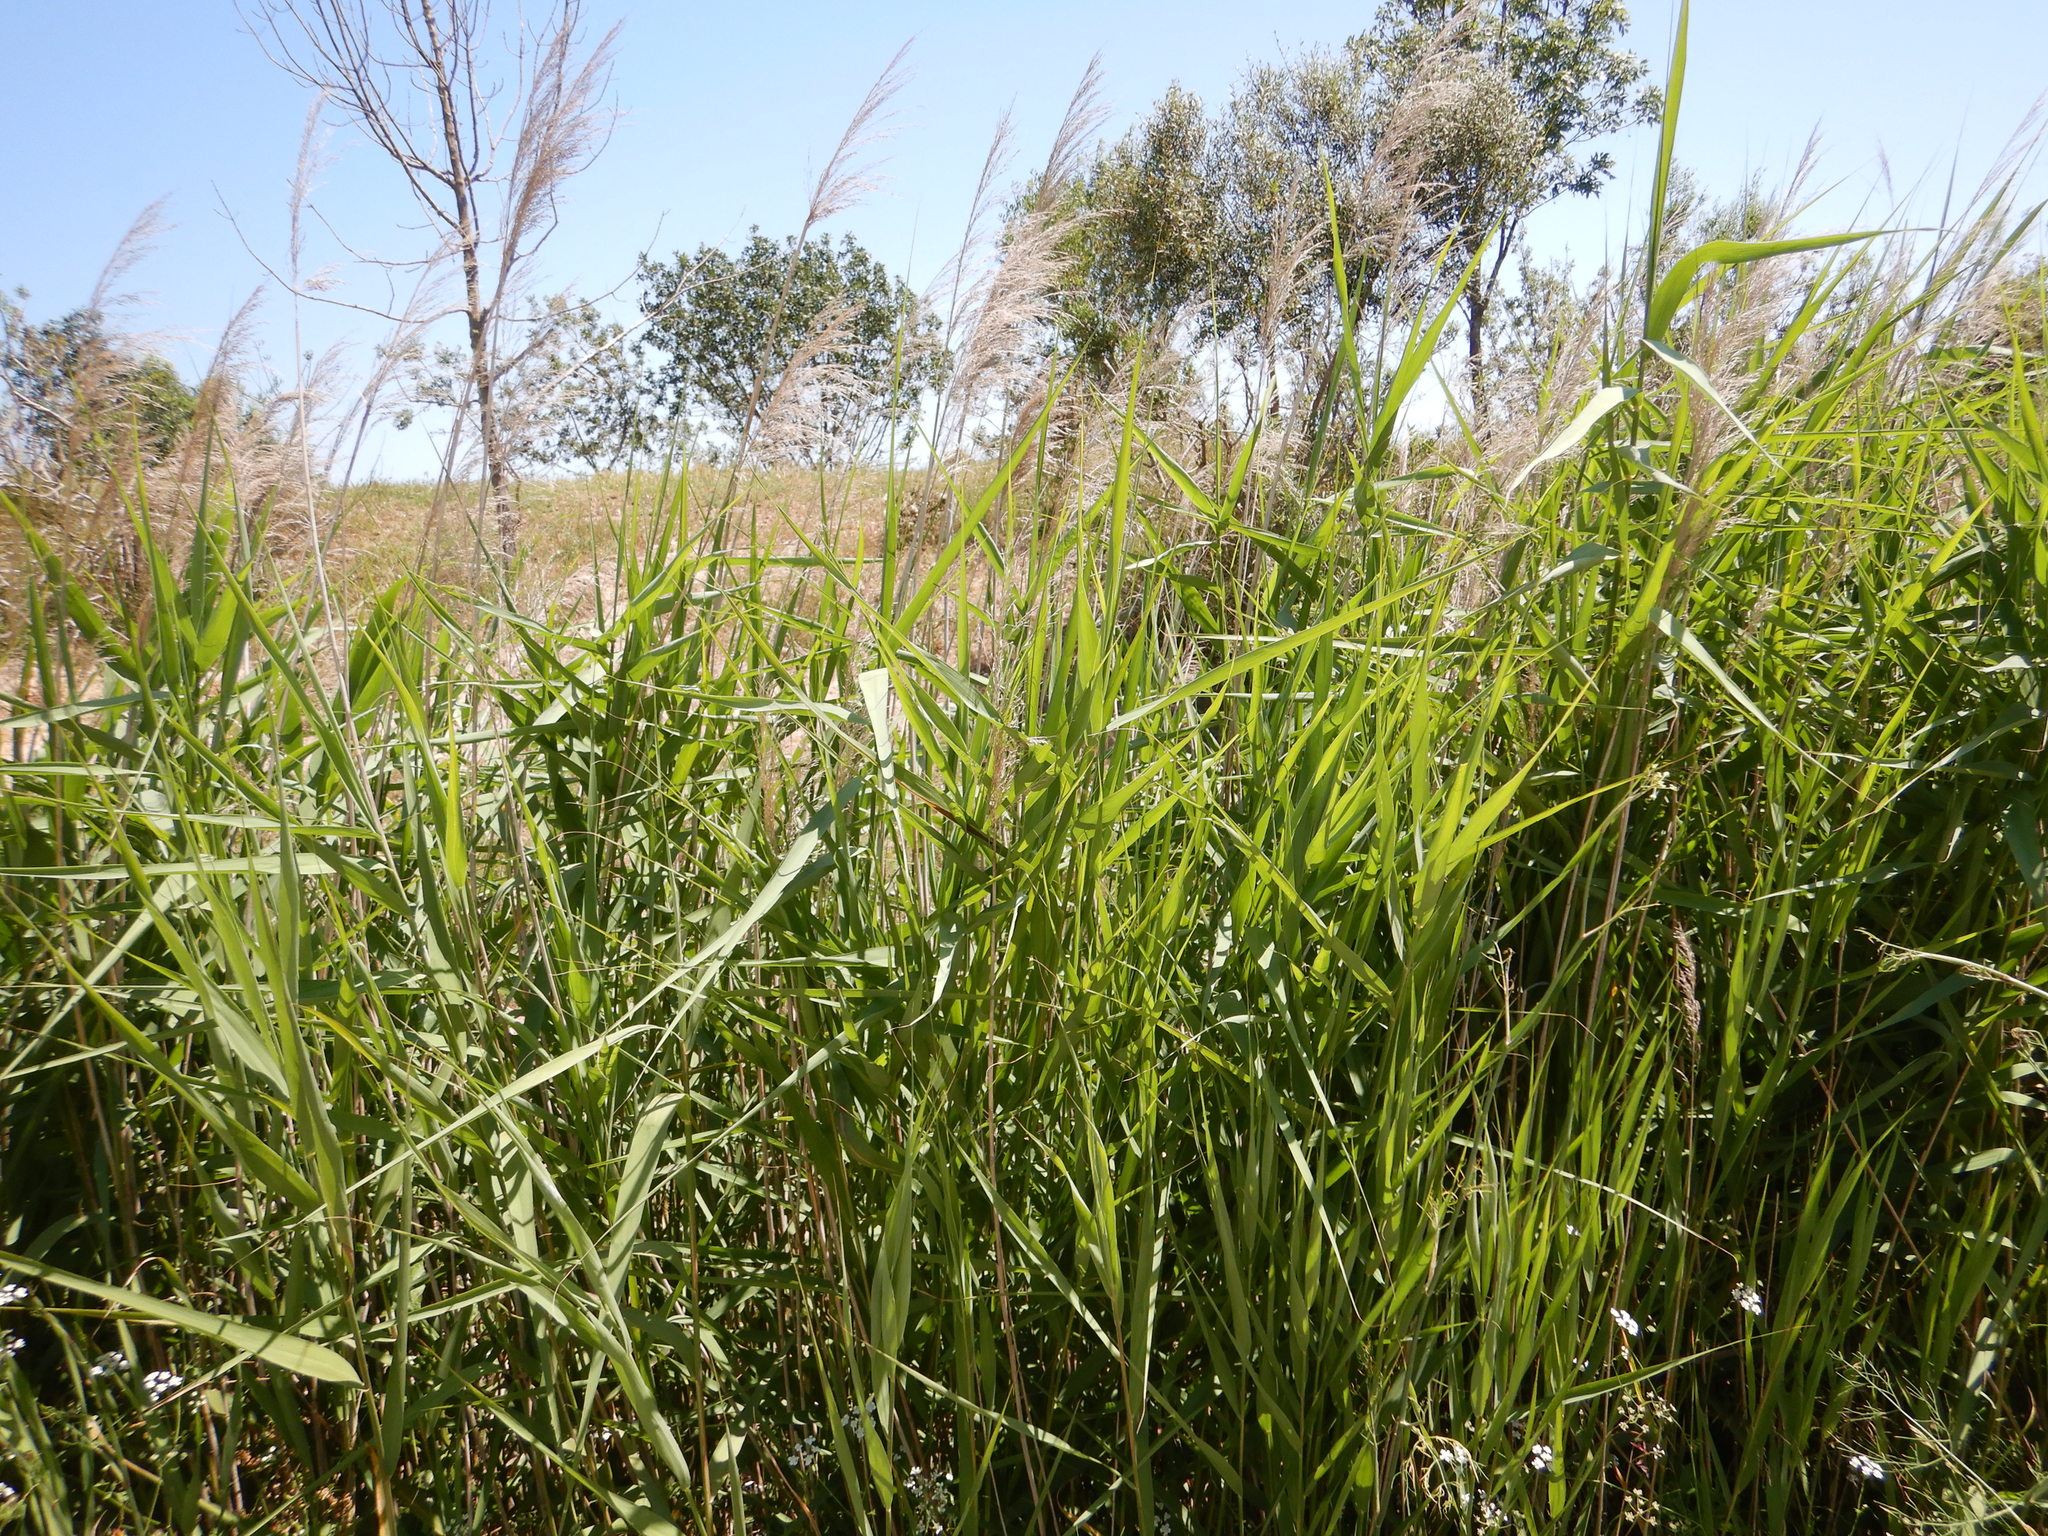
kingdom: Plantae
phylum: Tracheophyta
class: Liliopsida
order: Poales
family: Poaceae
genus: Phragmites
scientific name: Phragmites australis
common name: Common reed
